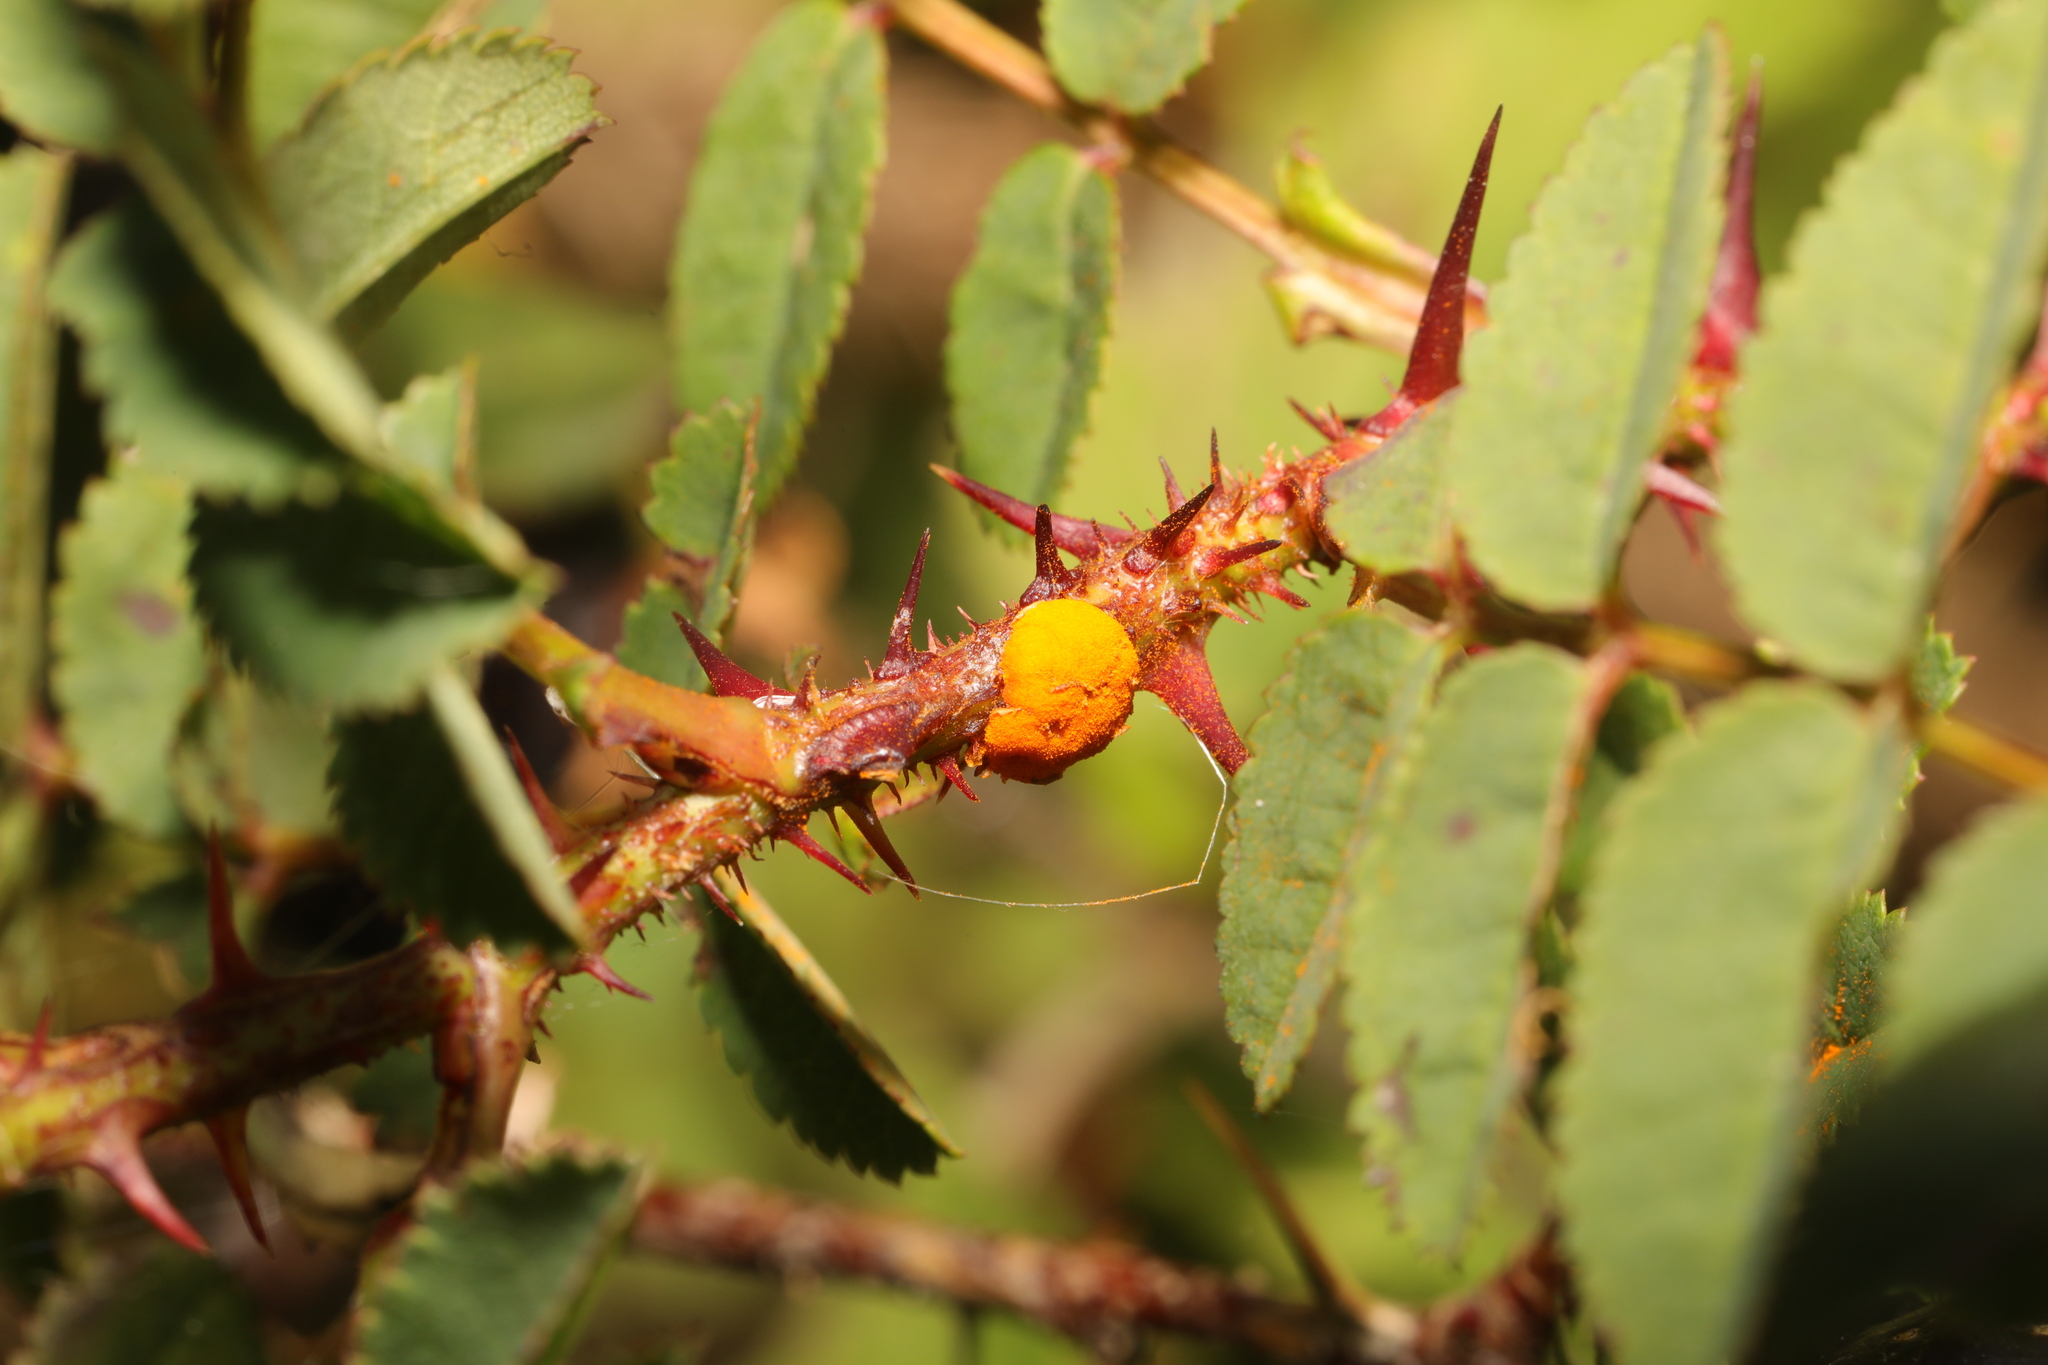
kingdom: Fungi
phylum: Basidiomycota
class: Pucciniomycetes
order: Pucciniales
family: Phragmidiaceae
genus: Phragmidium
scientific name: Phragmidium
